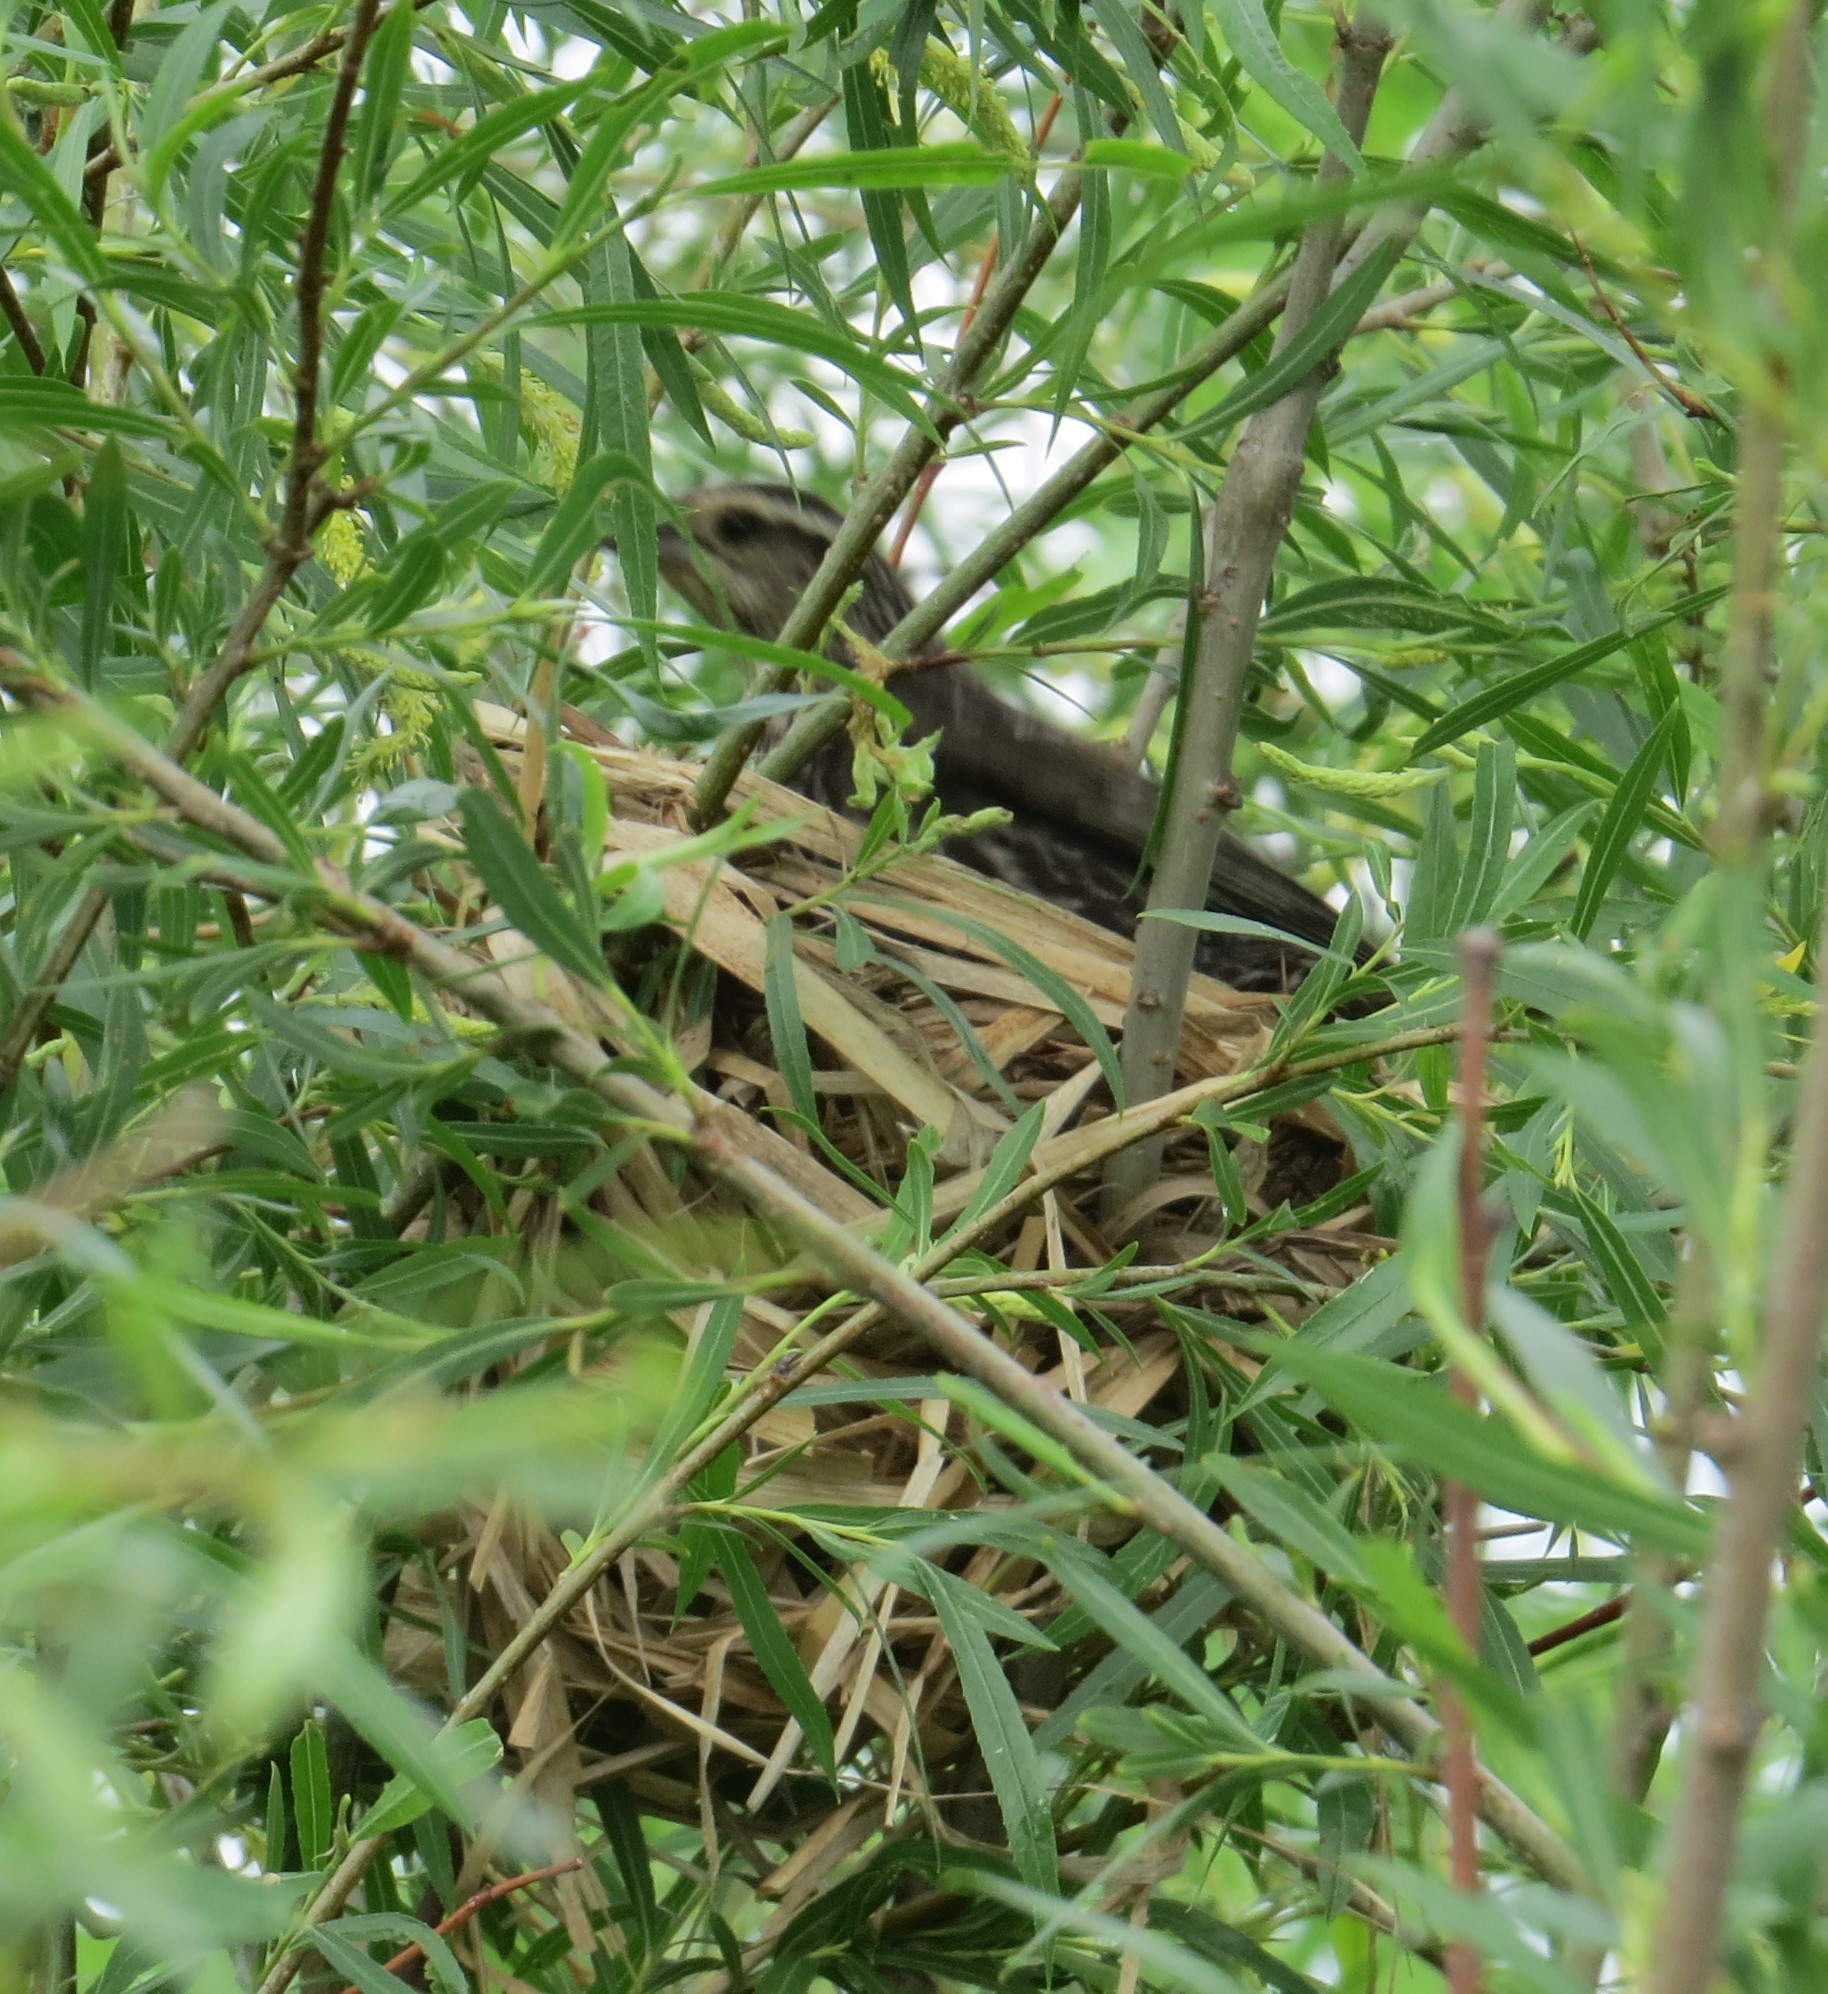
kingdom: Animalia
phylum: Chordata
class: Aves
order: Passeriformes
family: Icteridae
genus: Agelaius
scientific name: Agelaius phoeniceus
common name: Red-winged blackbird
